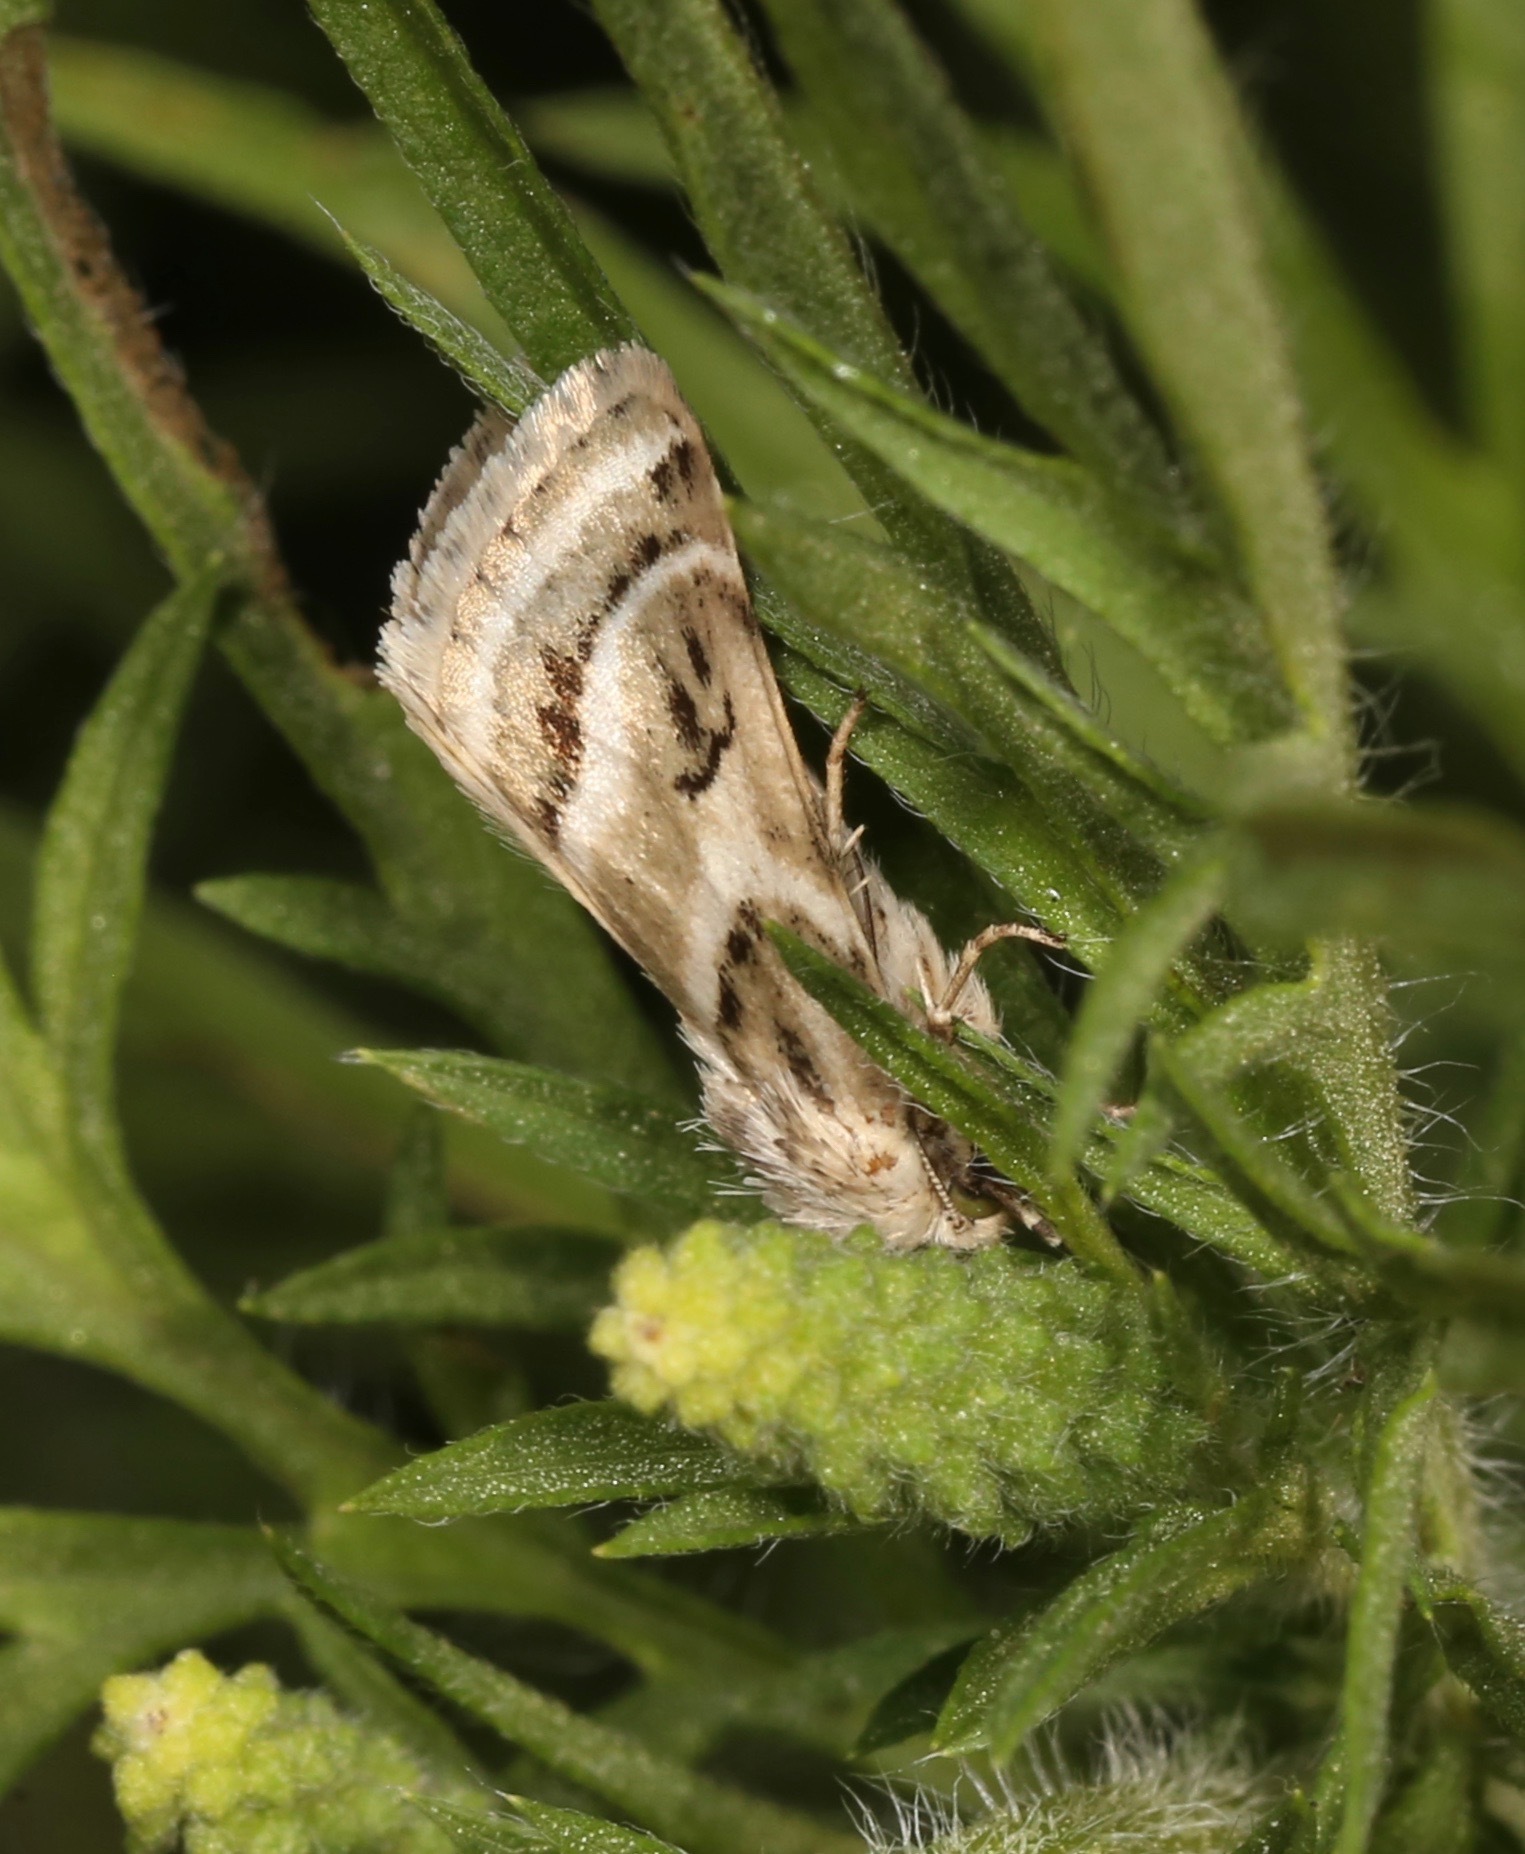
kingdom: Animalia
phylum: Arthropoda
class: Insecta
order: Lepidoptera
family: Noctuidae
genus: Schinia
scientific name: Schinia accessa
